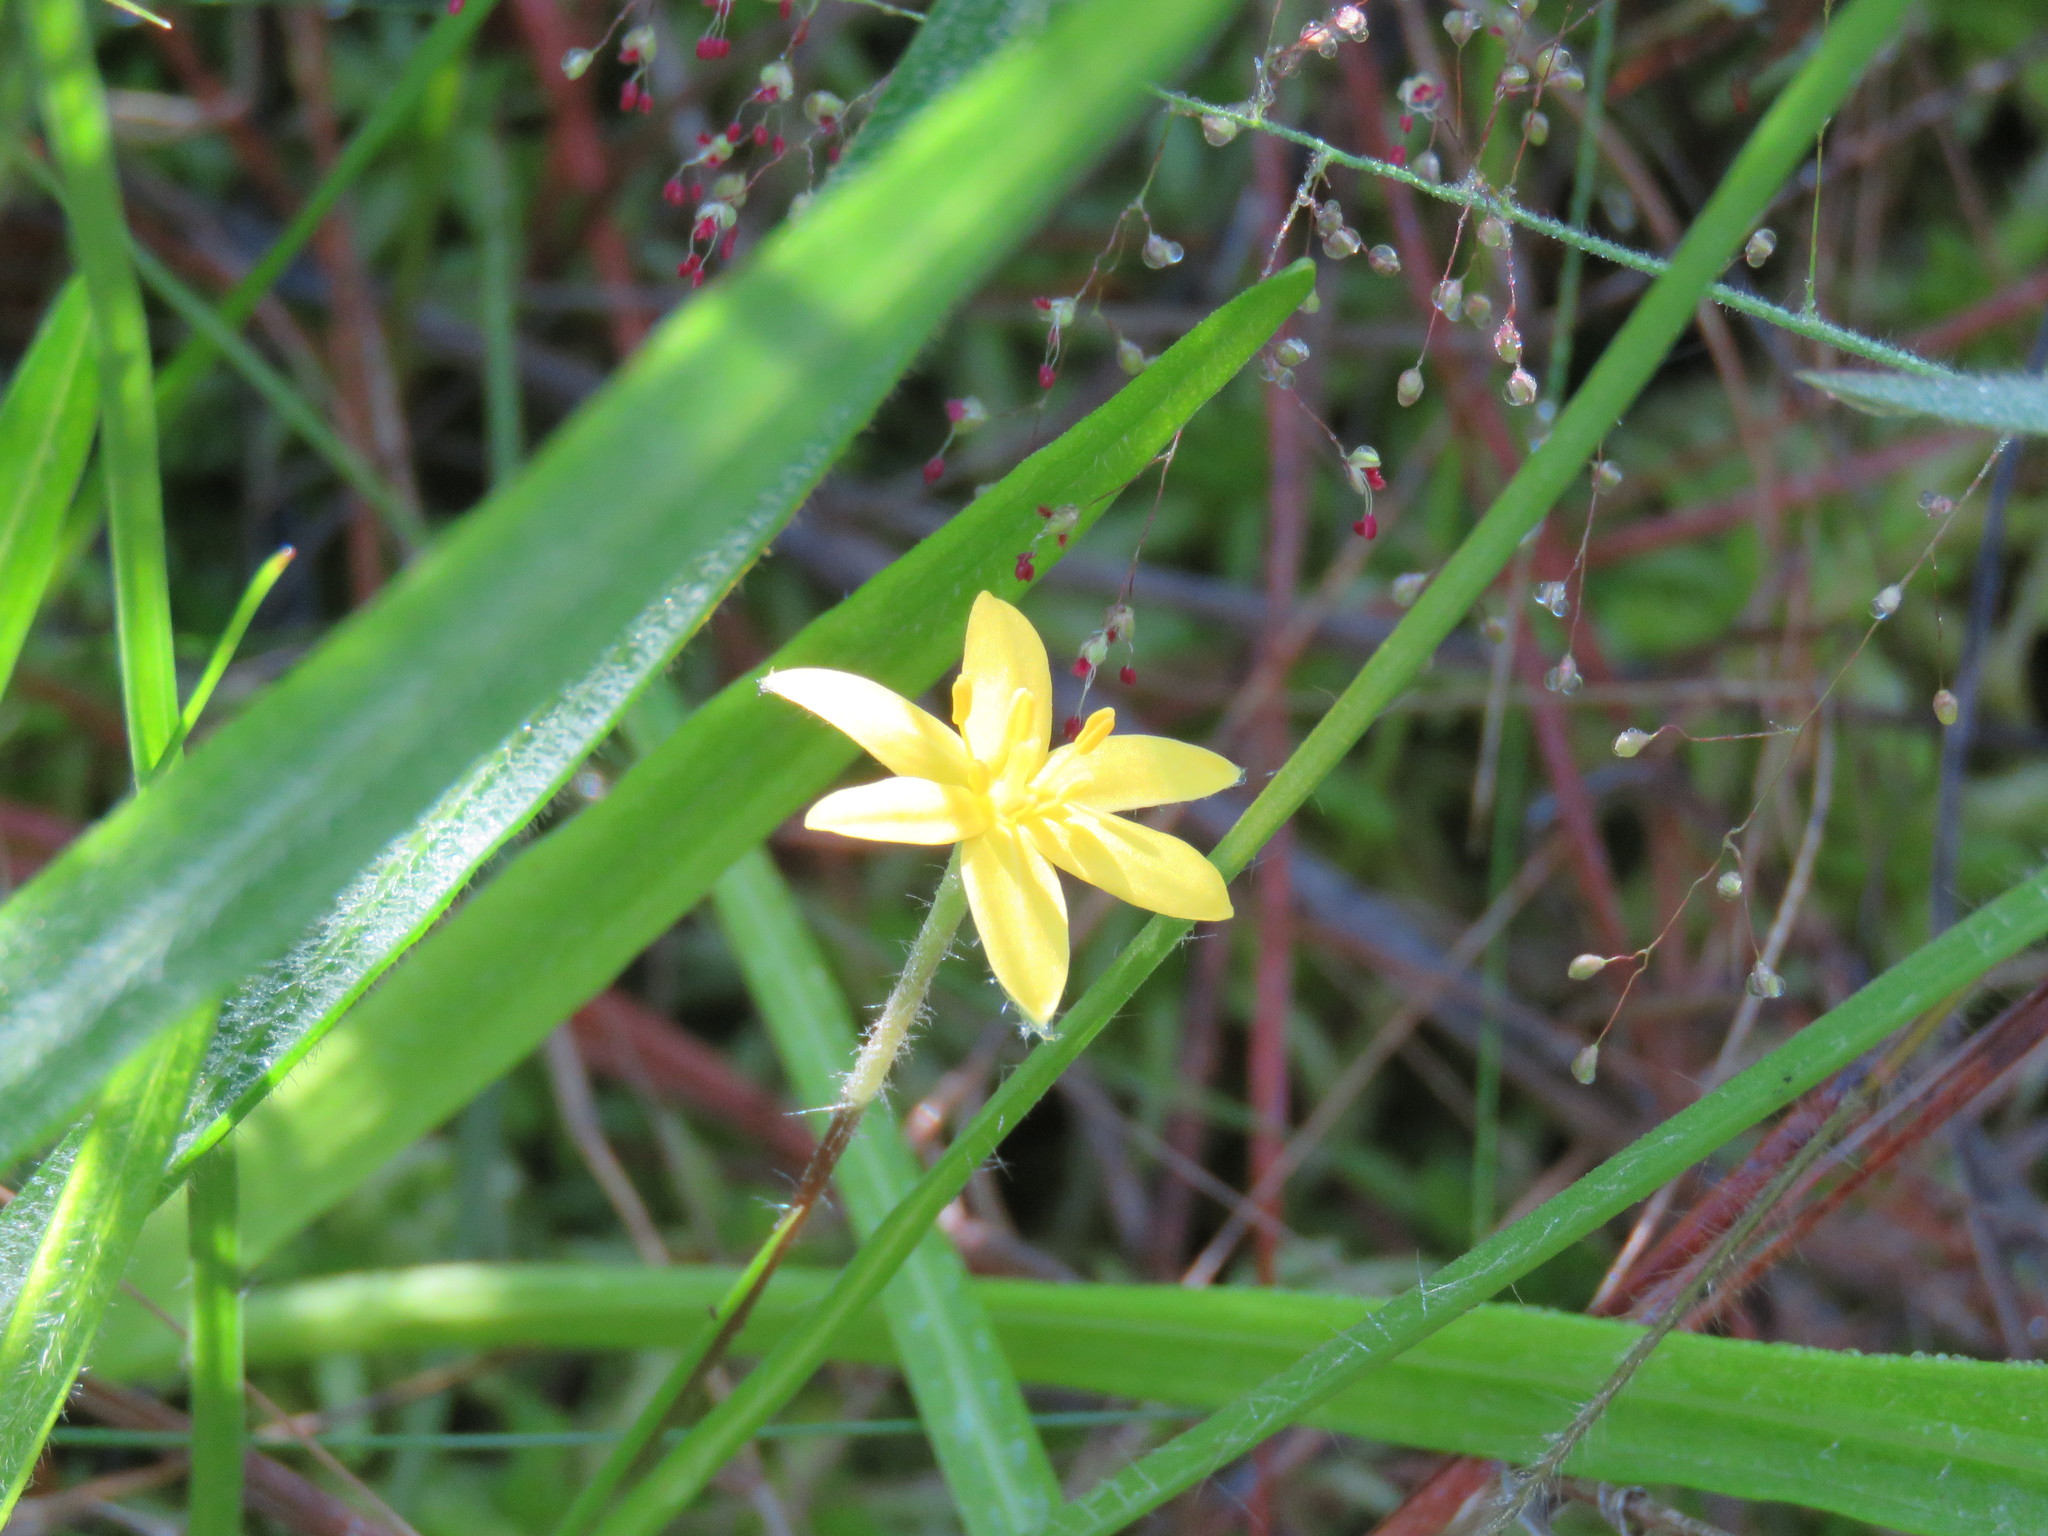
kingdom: Plantae
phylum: Tracheophyta
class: Liliopsida
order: Asparagales
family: Hypoxidaceae
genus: Hypoxis
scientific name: Hypoxis hirsuta
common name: Common goldstar
